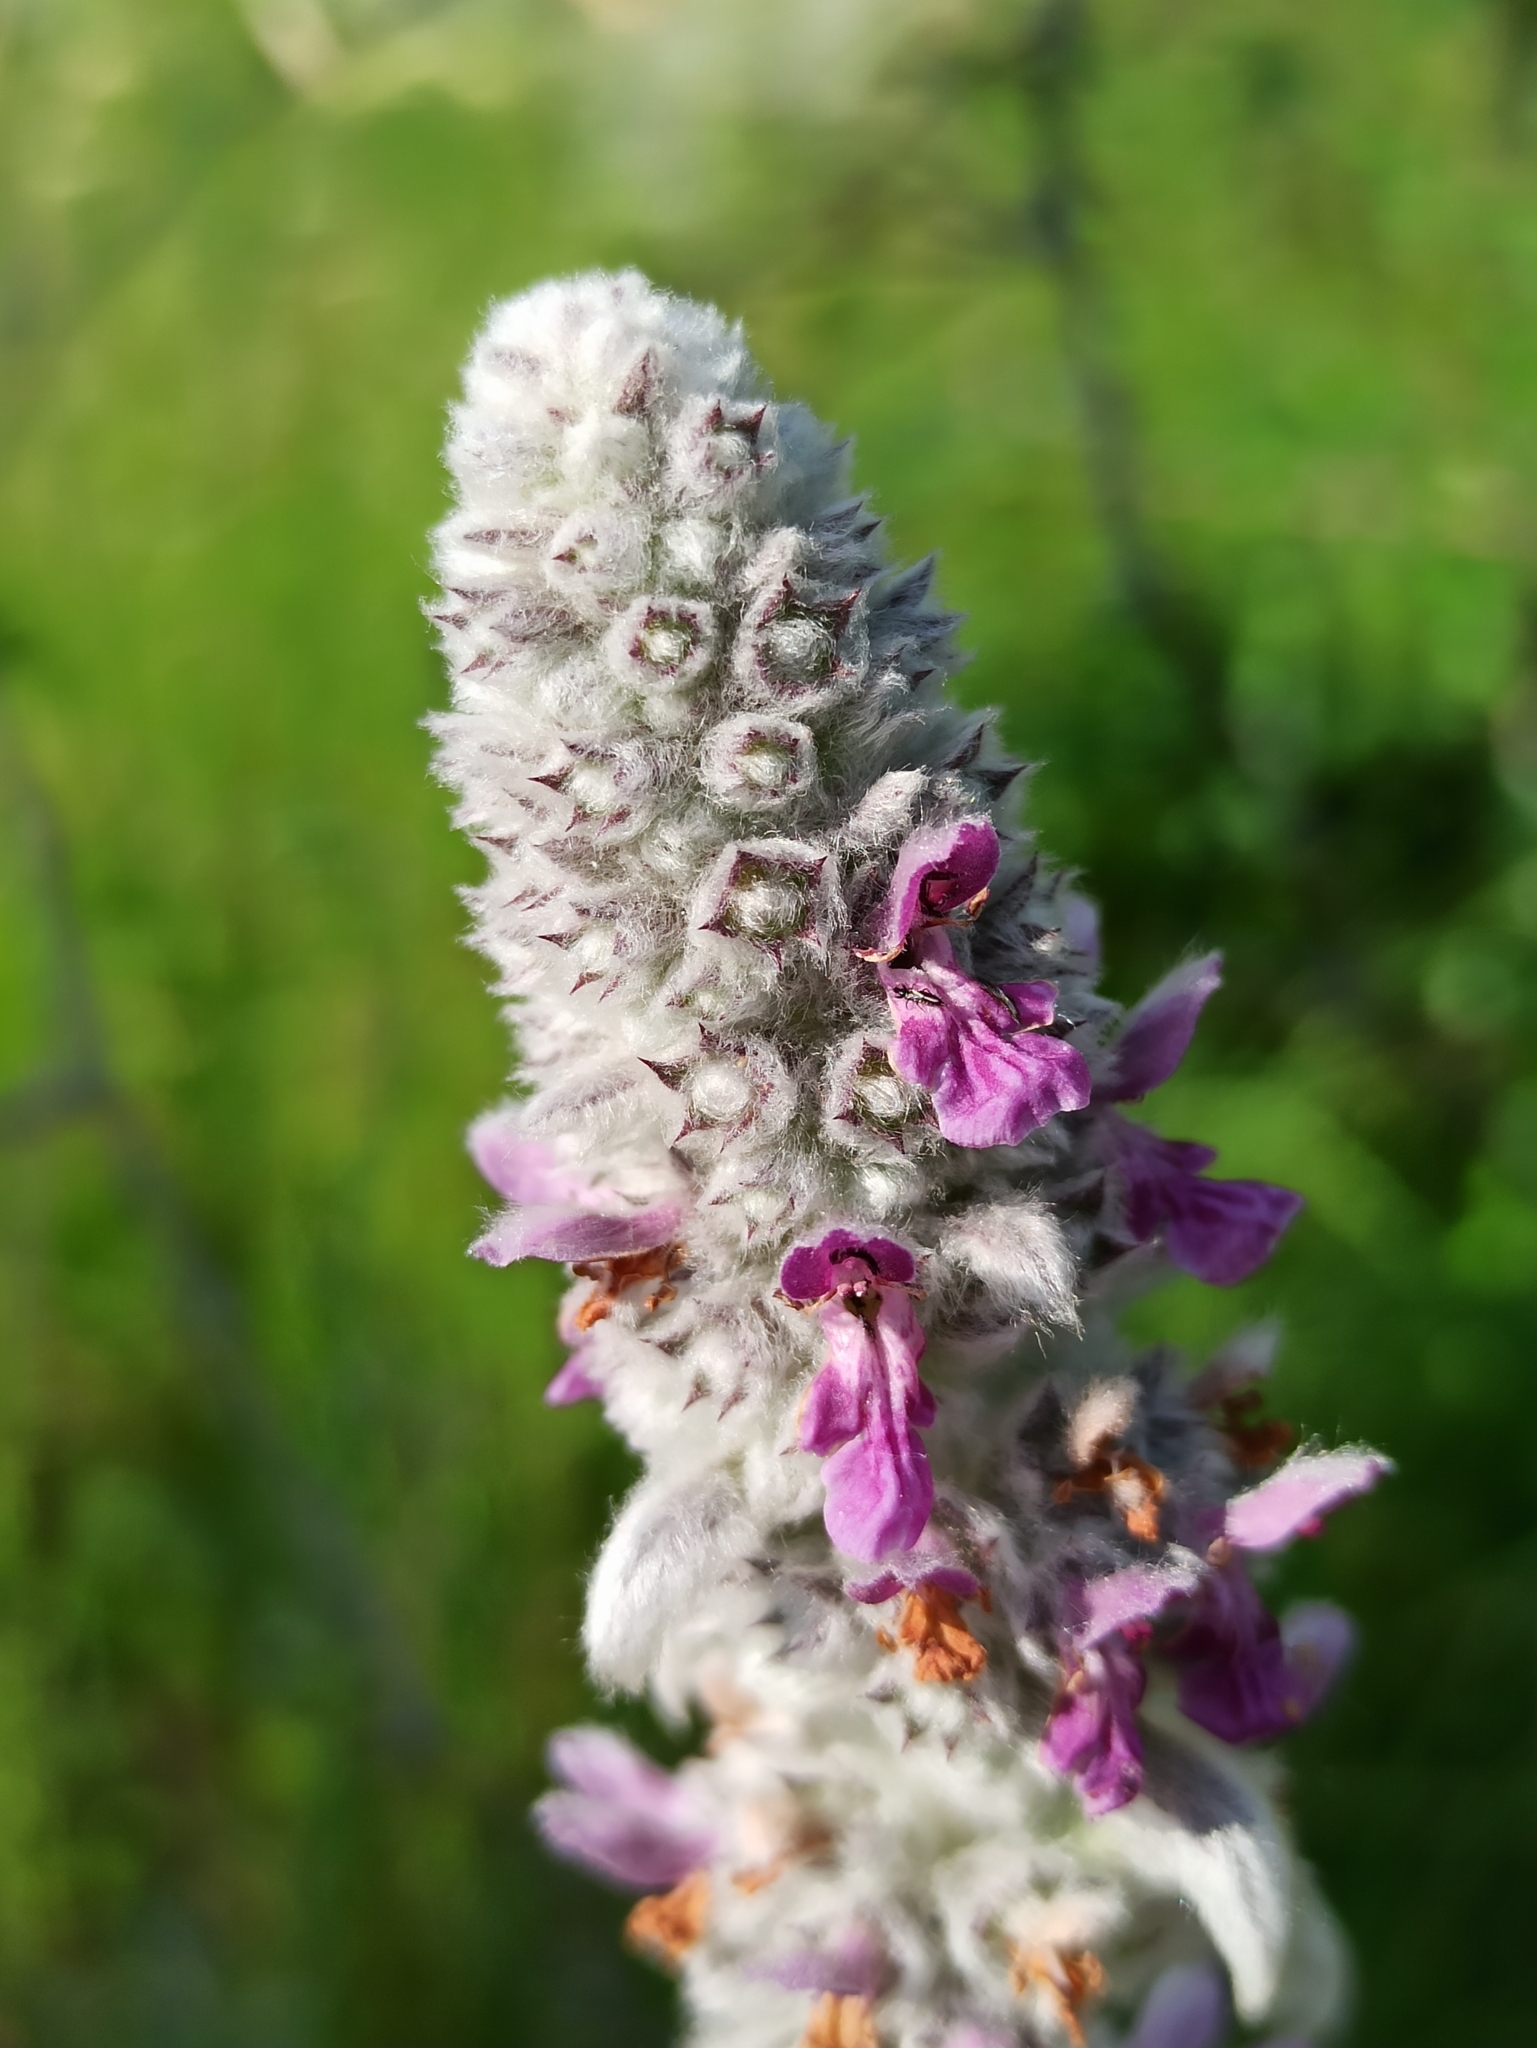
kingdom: Plantae
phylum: Tracheophyta
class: Magnoliopsida
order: Lamiales
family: Lamiaceae
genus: Stachys
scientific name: Stachys byzantina
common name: Lamb's-ear
